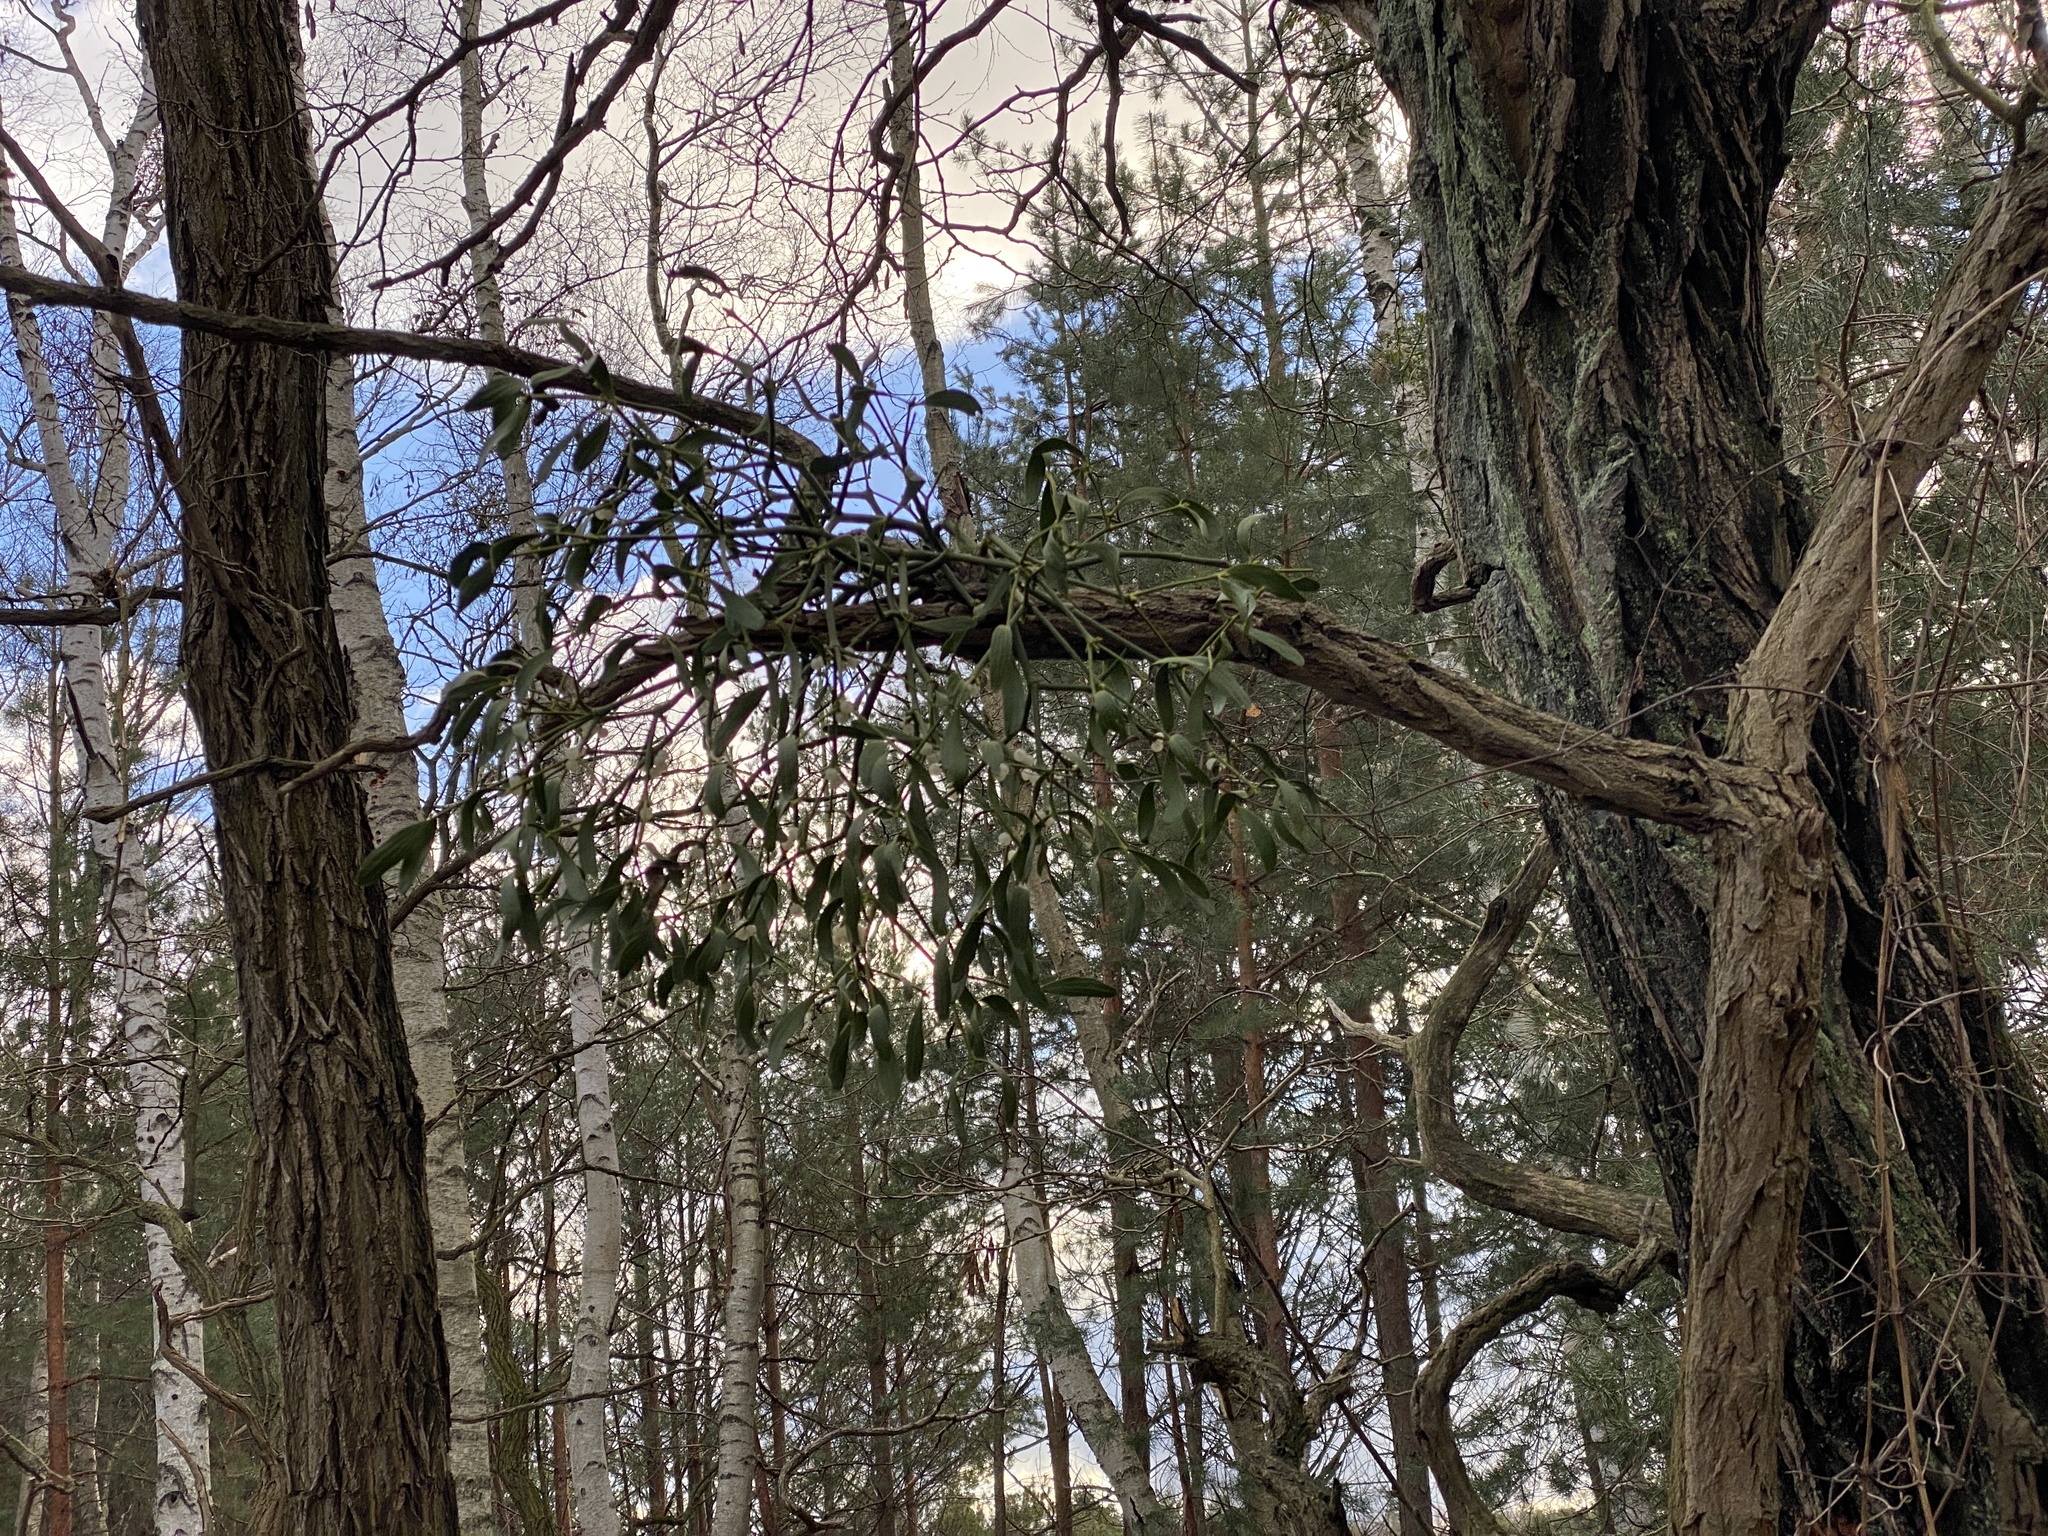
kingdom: Plantae
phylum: Tracheophyta
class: Magnoliopsida
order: Santalales
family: Viscaceae
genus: Viscum
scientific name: Viscum album
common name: Mistletoe
